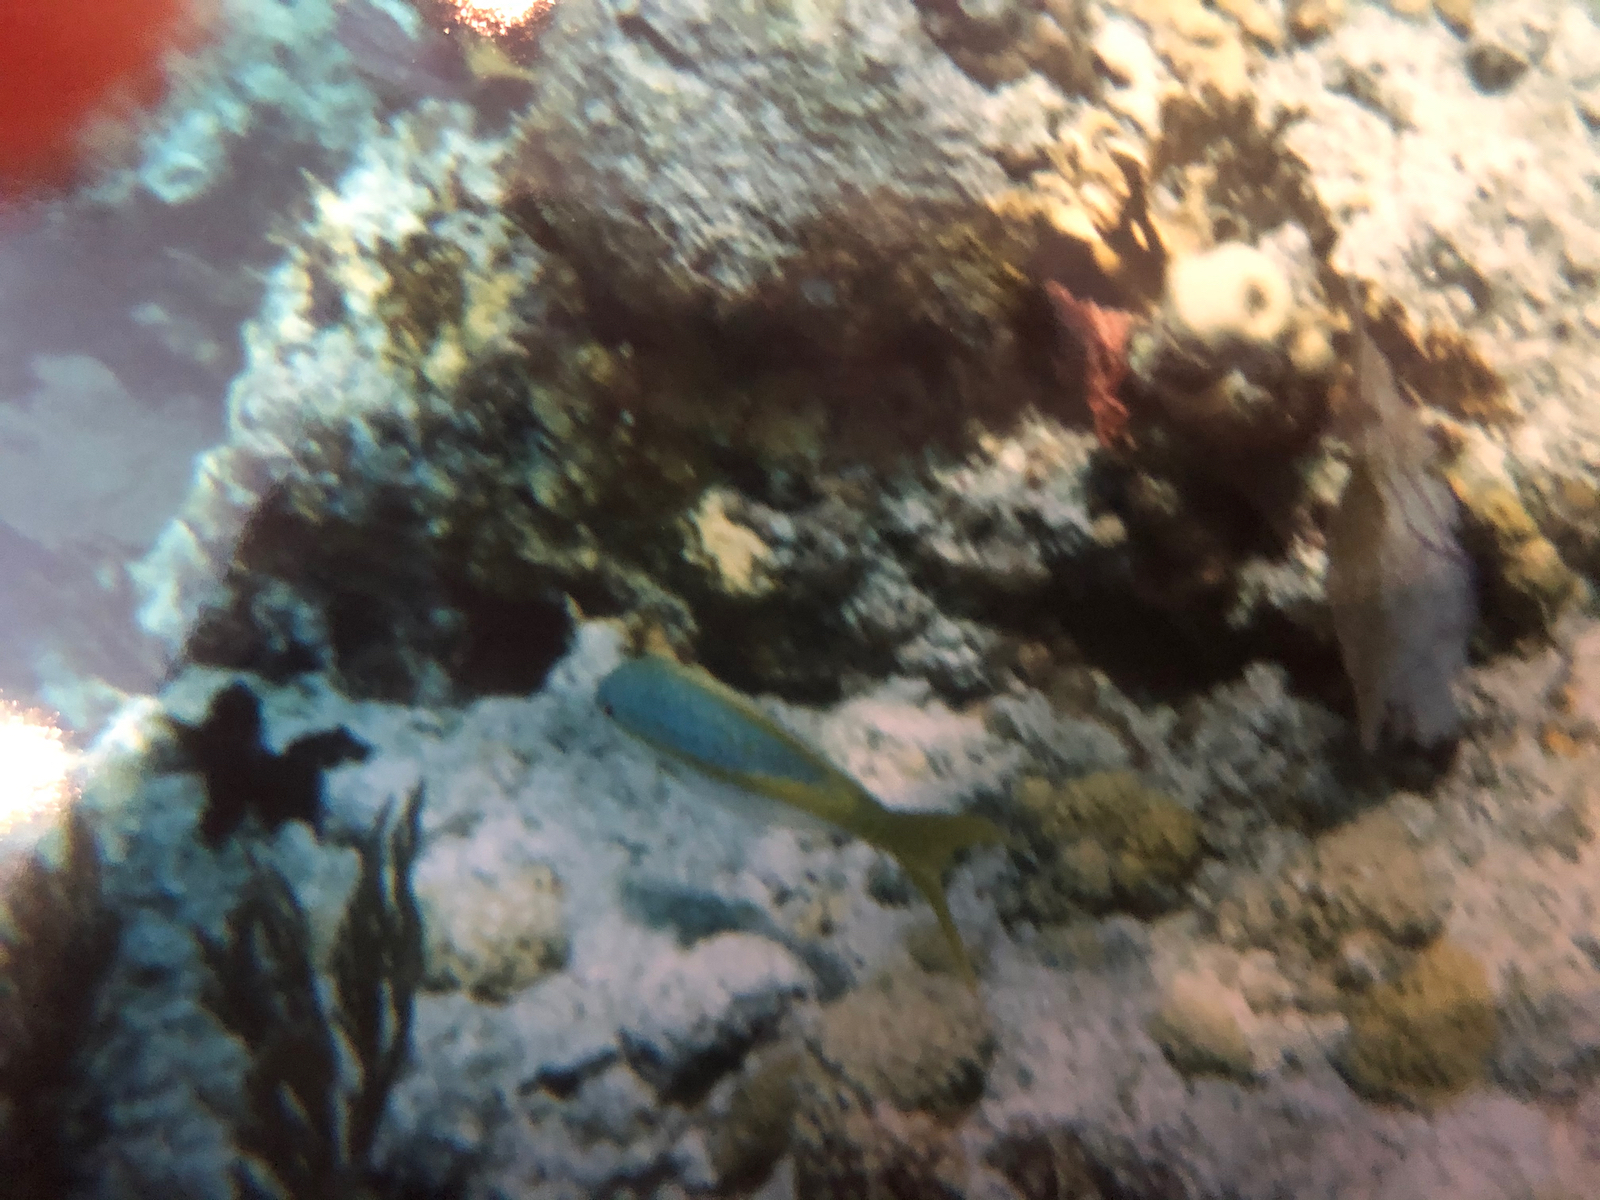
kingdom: Animalia
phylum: Chordata
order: Perciformes
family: Lutjanidae
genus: Ocyurus
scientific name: Ocyurus chrysurus
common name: Yellowtail snapper
